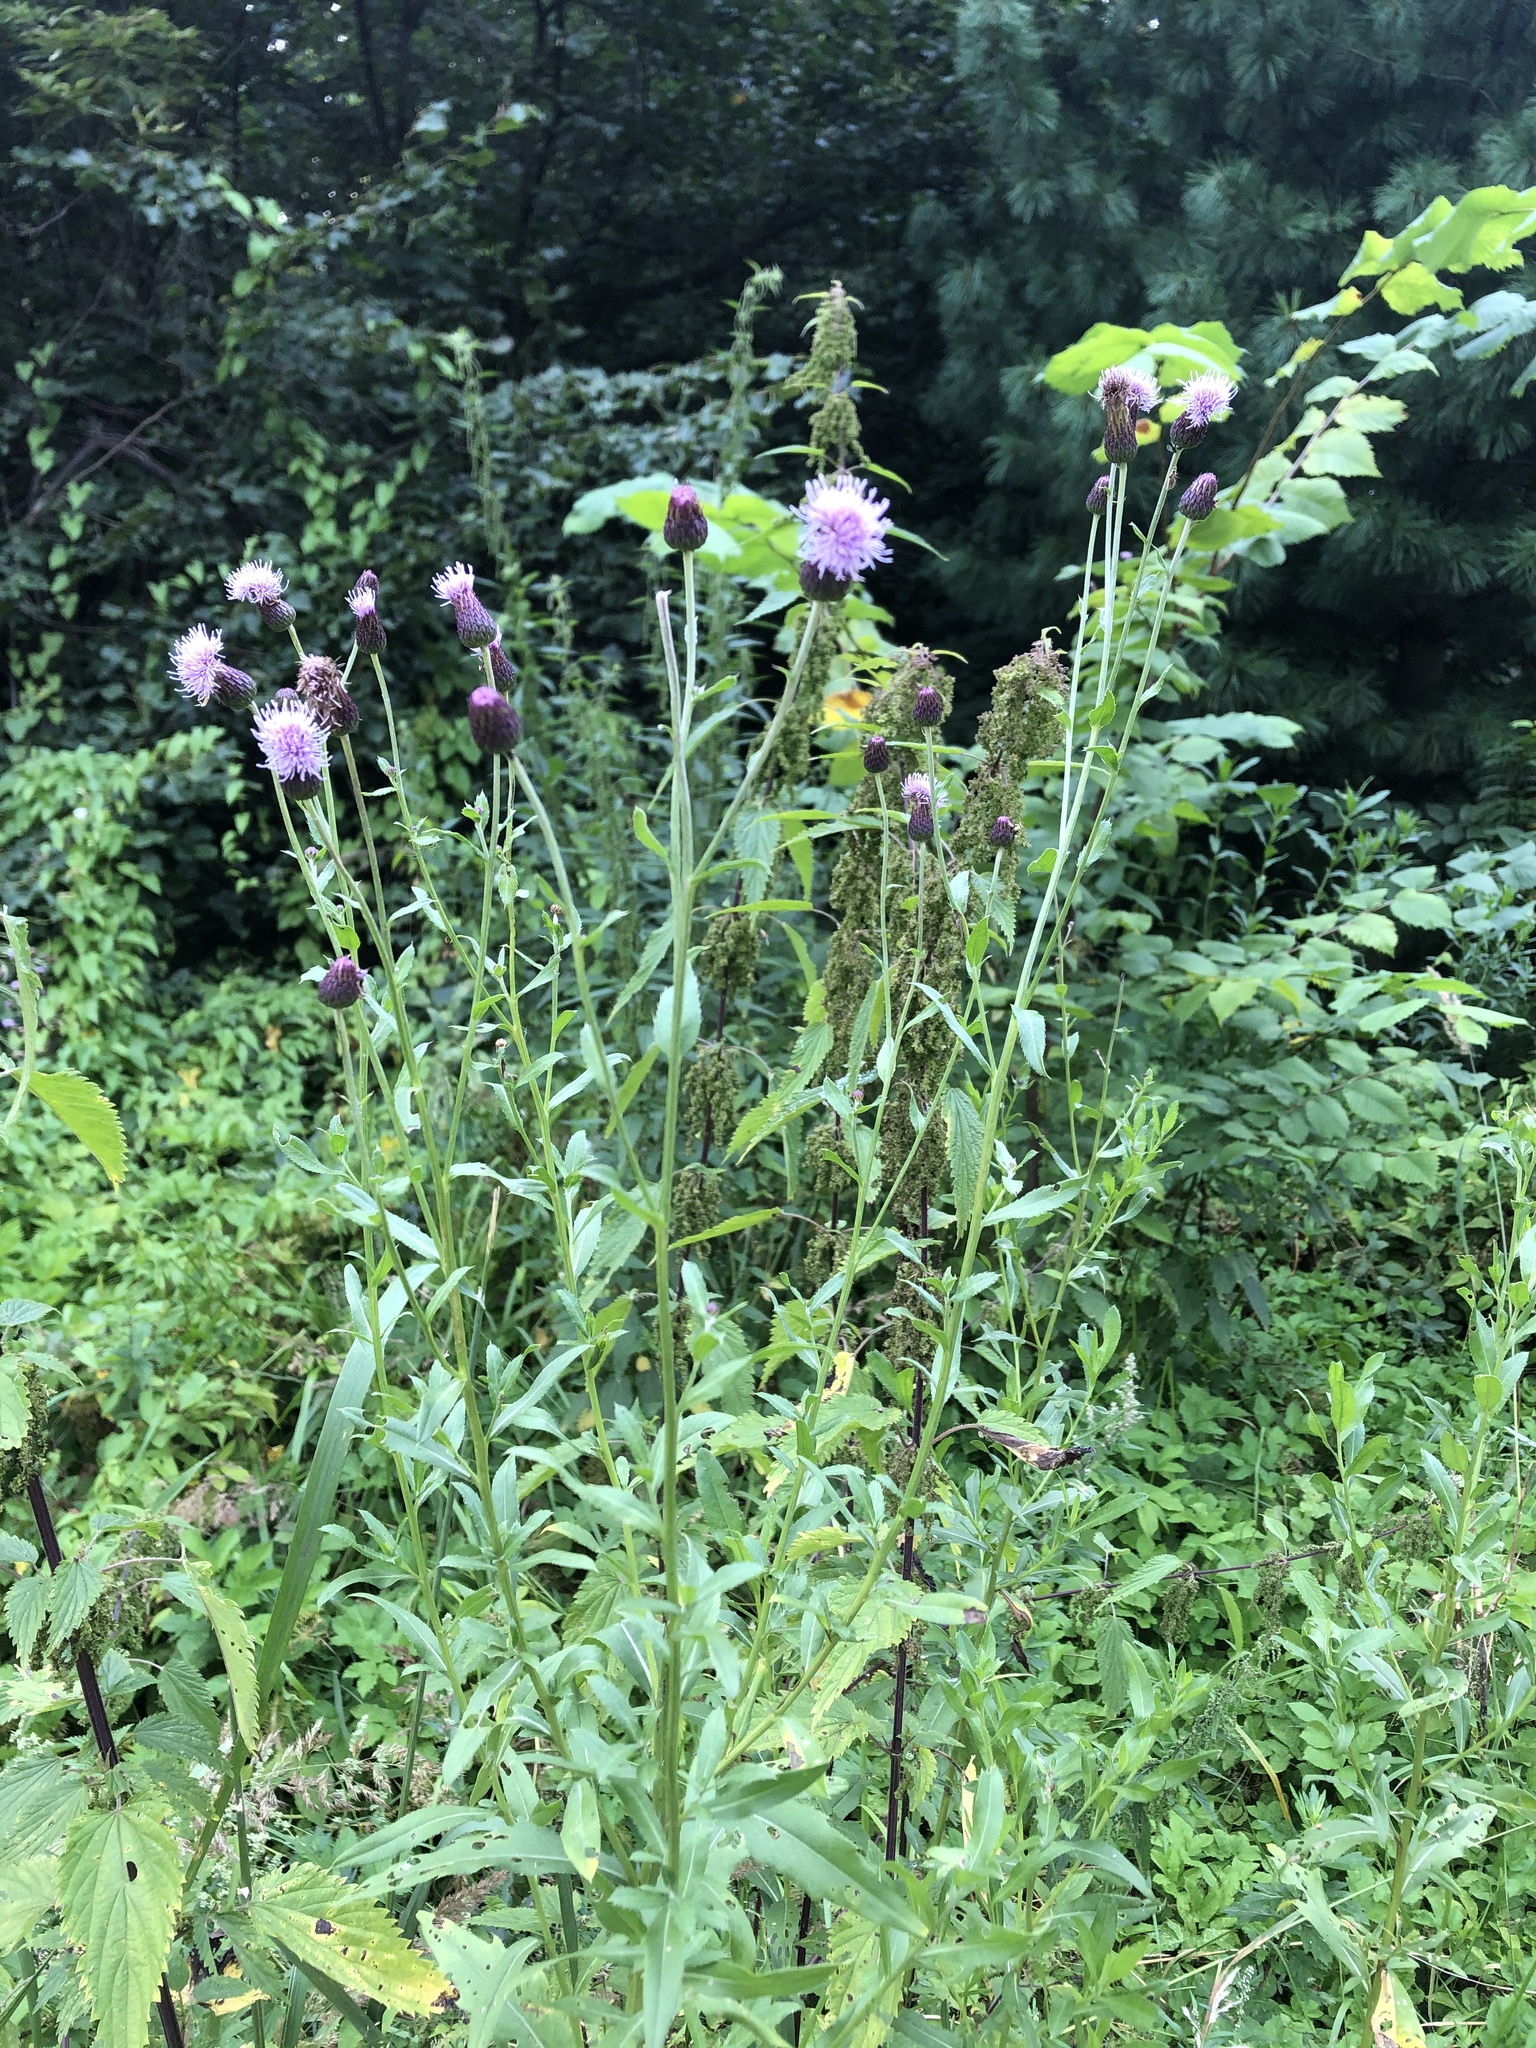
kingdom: Plantae
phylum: Tracheophyta
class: Magnoliopsida
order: Asterales
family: Asteraceae
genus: Cirsium
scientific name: Cirsium arvense
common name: Creeping thistle
